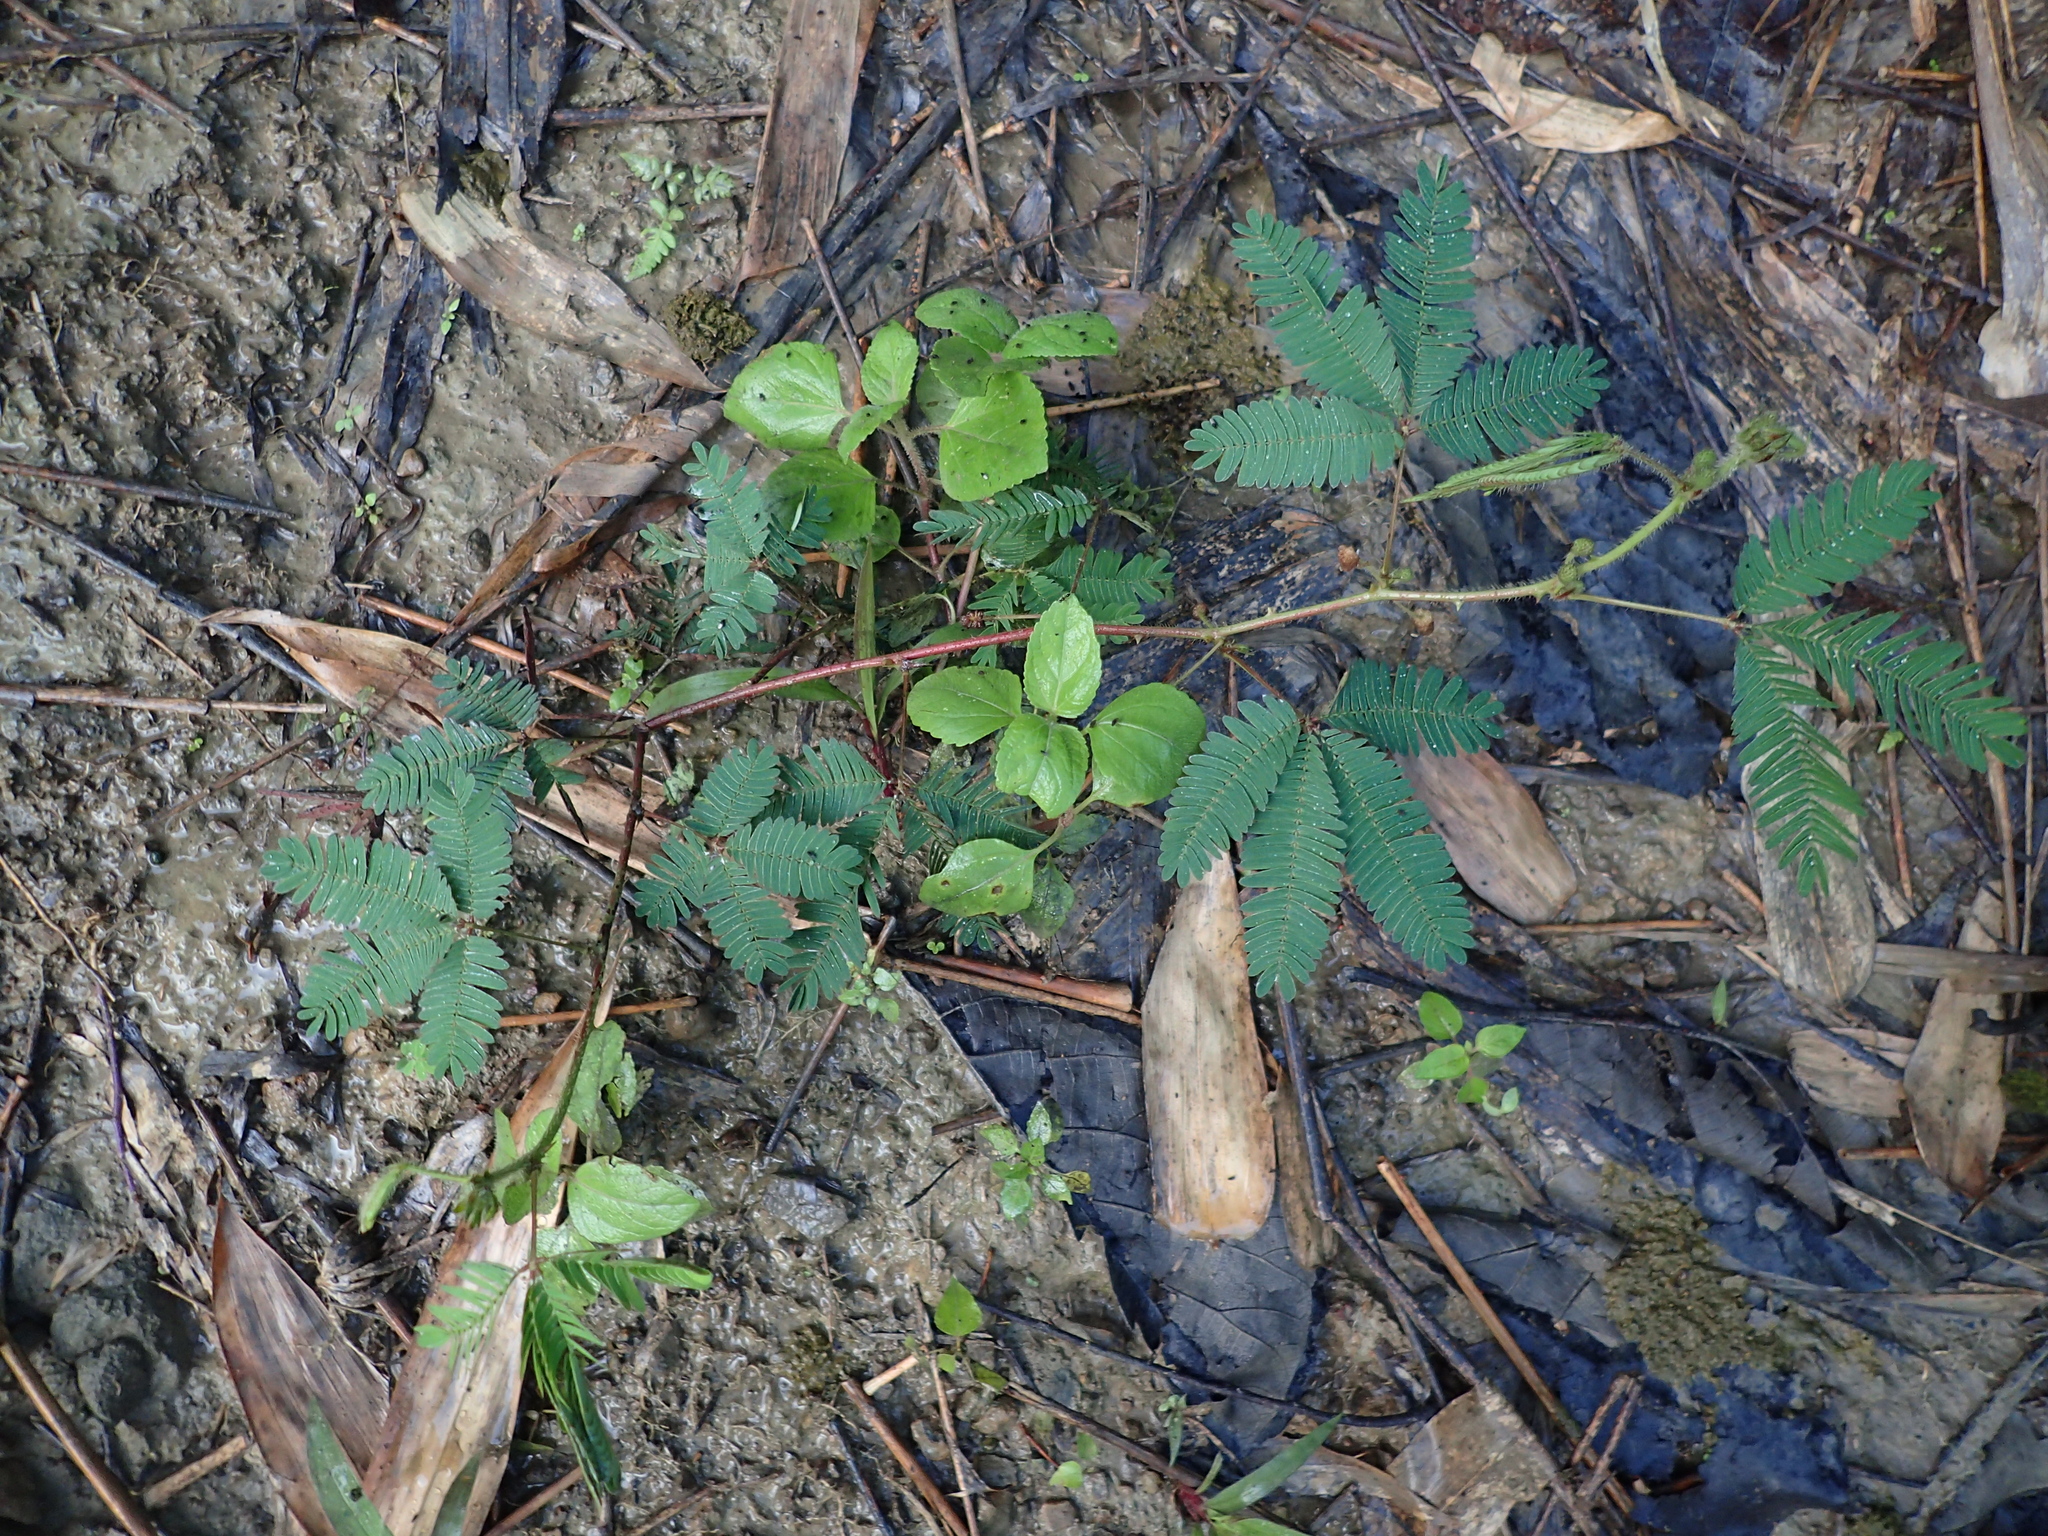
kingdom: Plantae
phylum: Tracheophyta
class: Magnoliopsida
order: Fabales
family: Fabaceae
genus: Mimosa
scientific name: Mimosa pudica
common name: Sensitive plant
